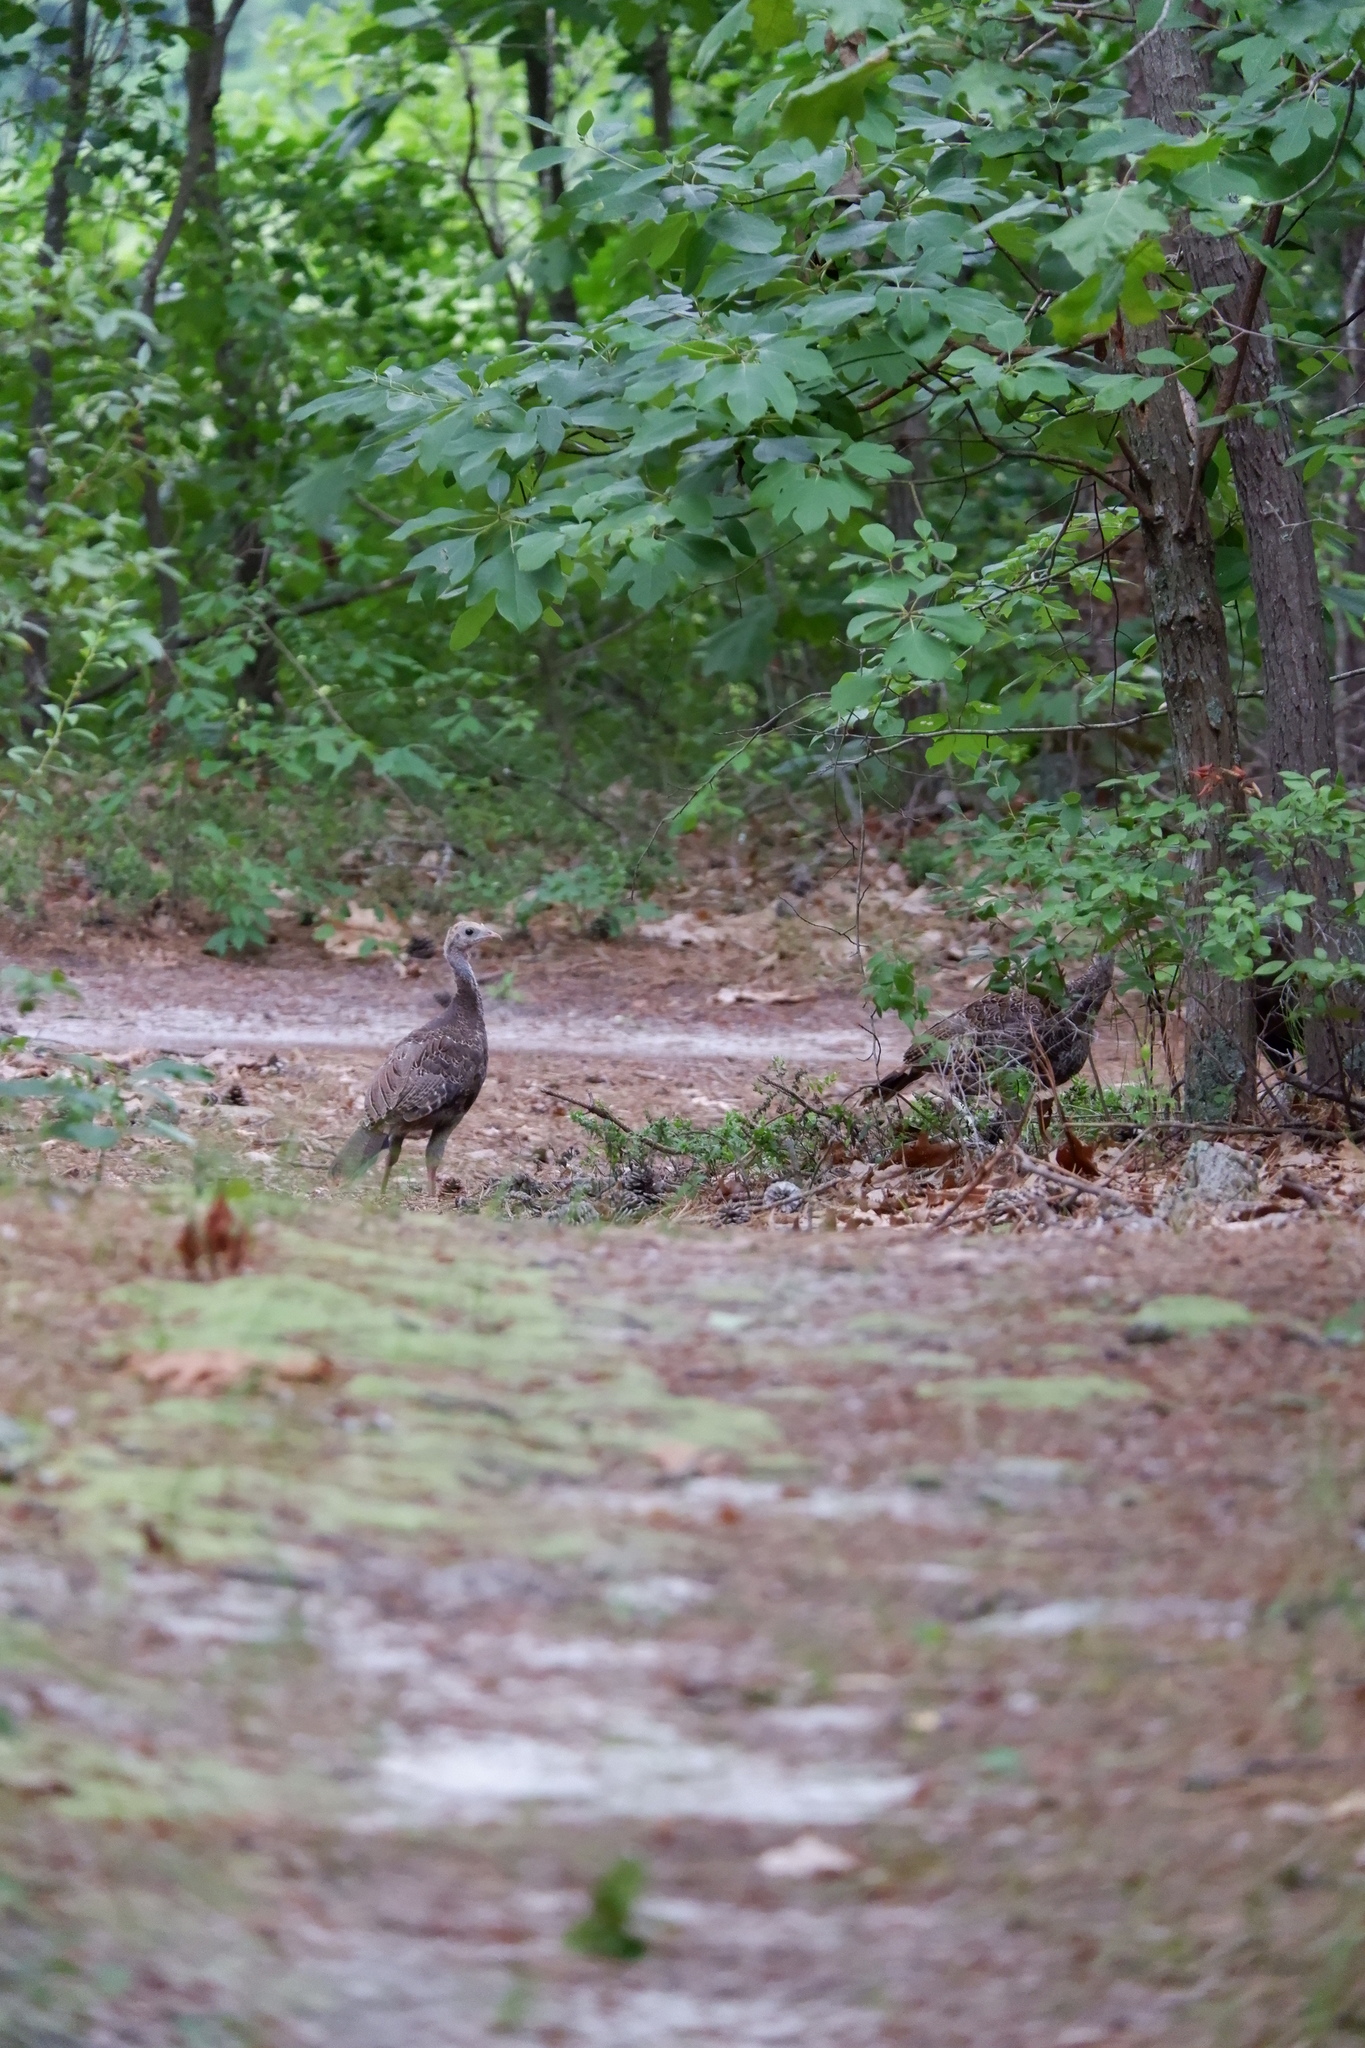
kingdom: Animalia
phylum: Chordata
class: Aves
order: Galliformes
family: Phasianidae
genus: Meleagris
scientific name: Meleagris gallopavo
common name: Wild turkey
